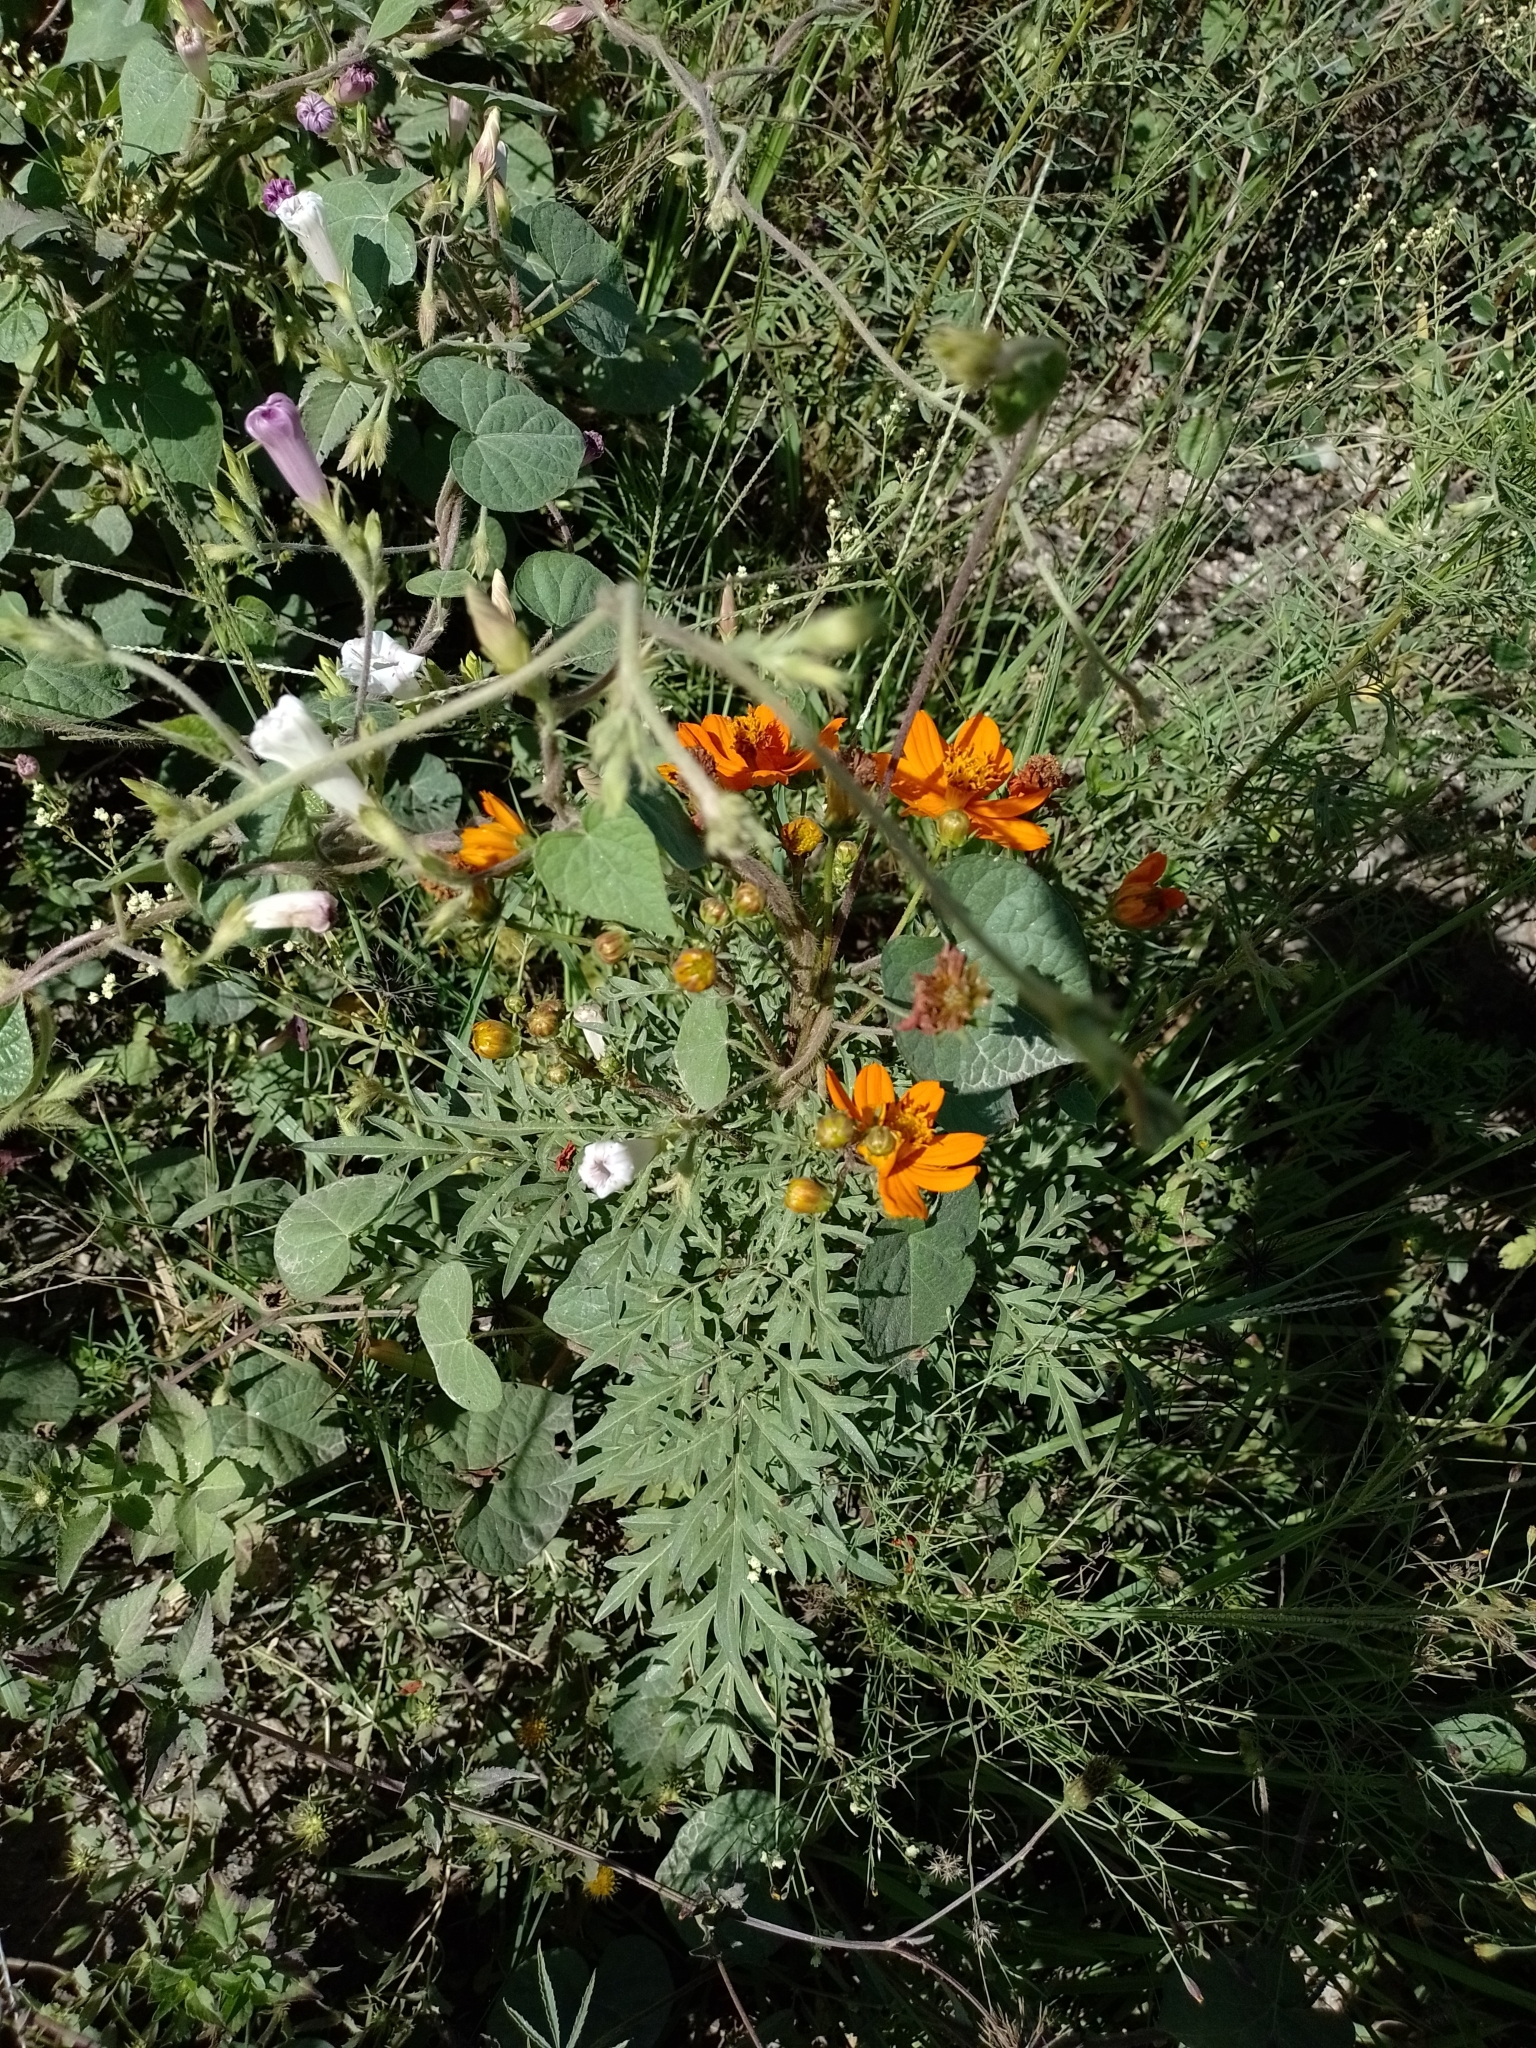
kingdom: Plantae
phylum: Tracheophyta
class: Magnoliopsida
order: Asterales
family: Asteraceae
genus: Cosmos
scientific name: Cosmos sulphureus
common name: Sulphur cosmos
